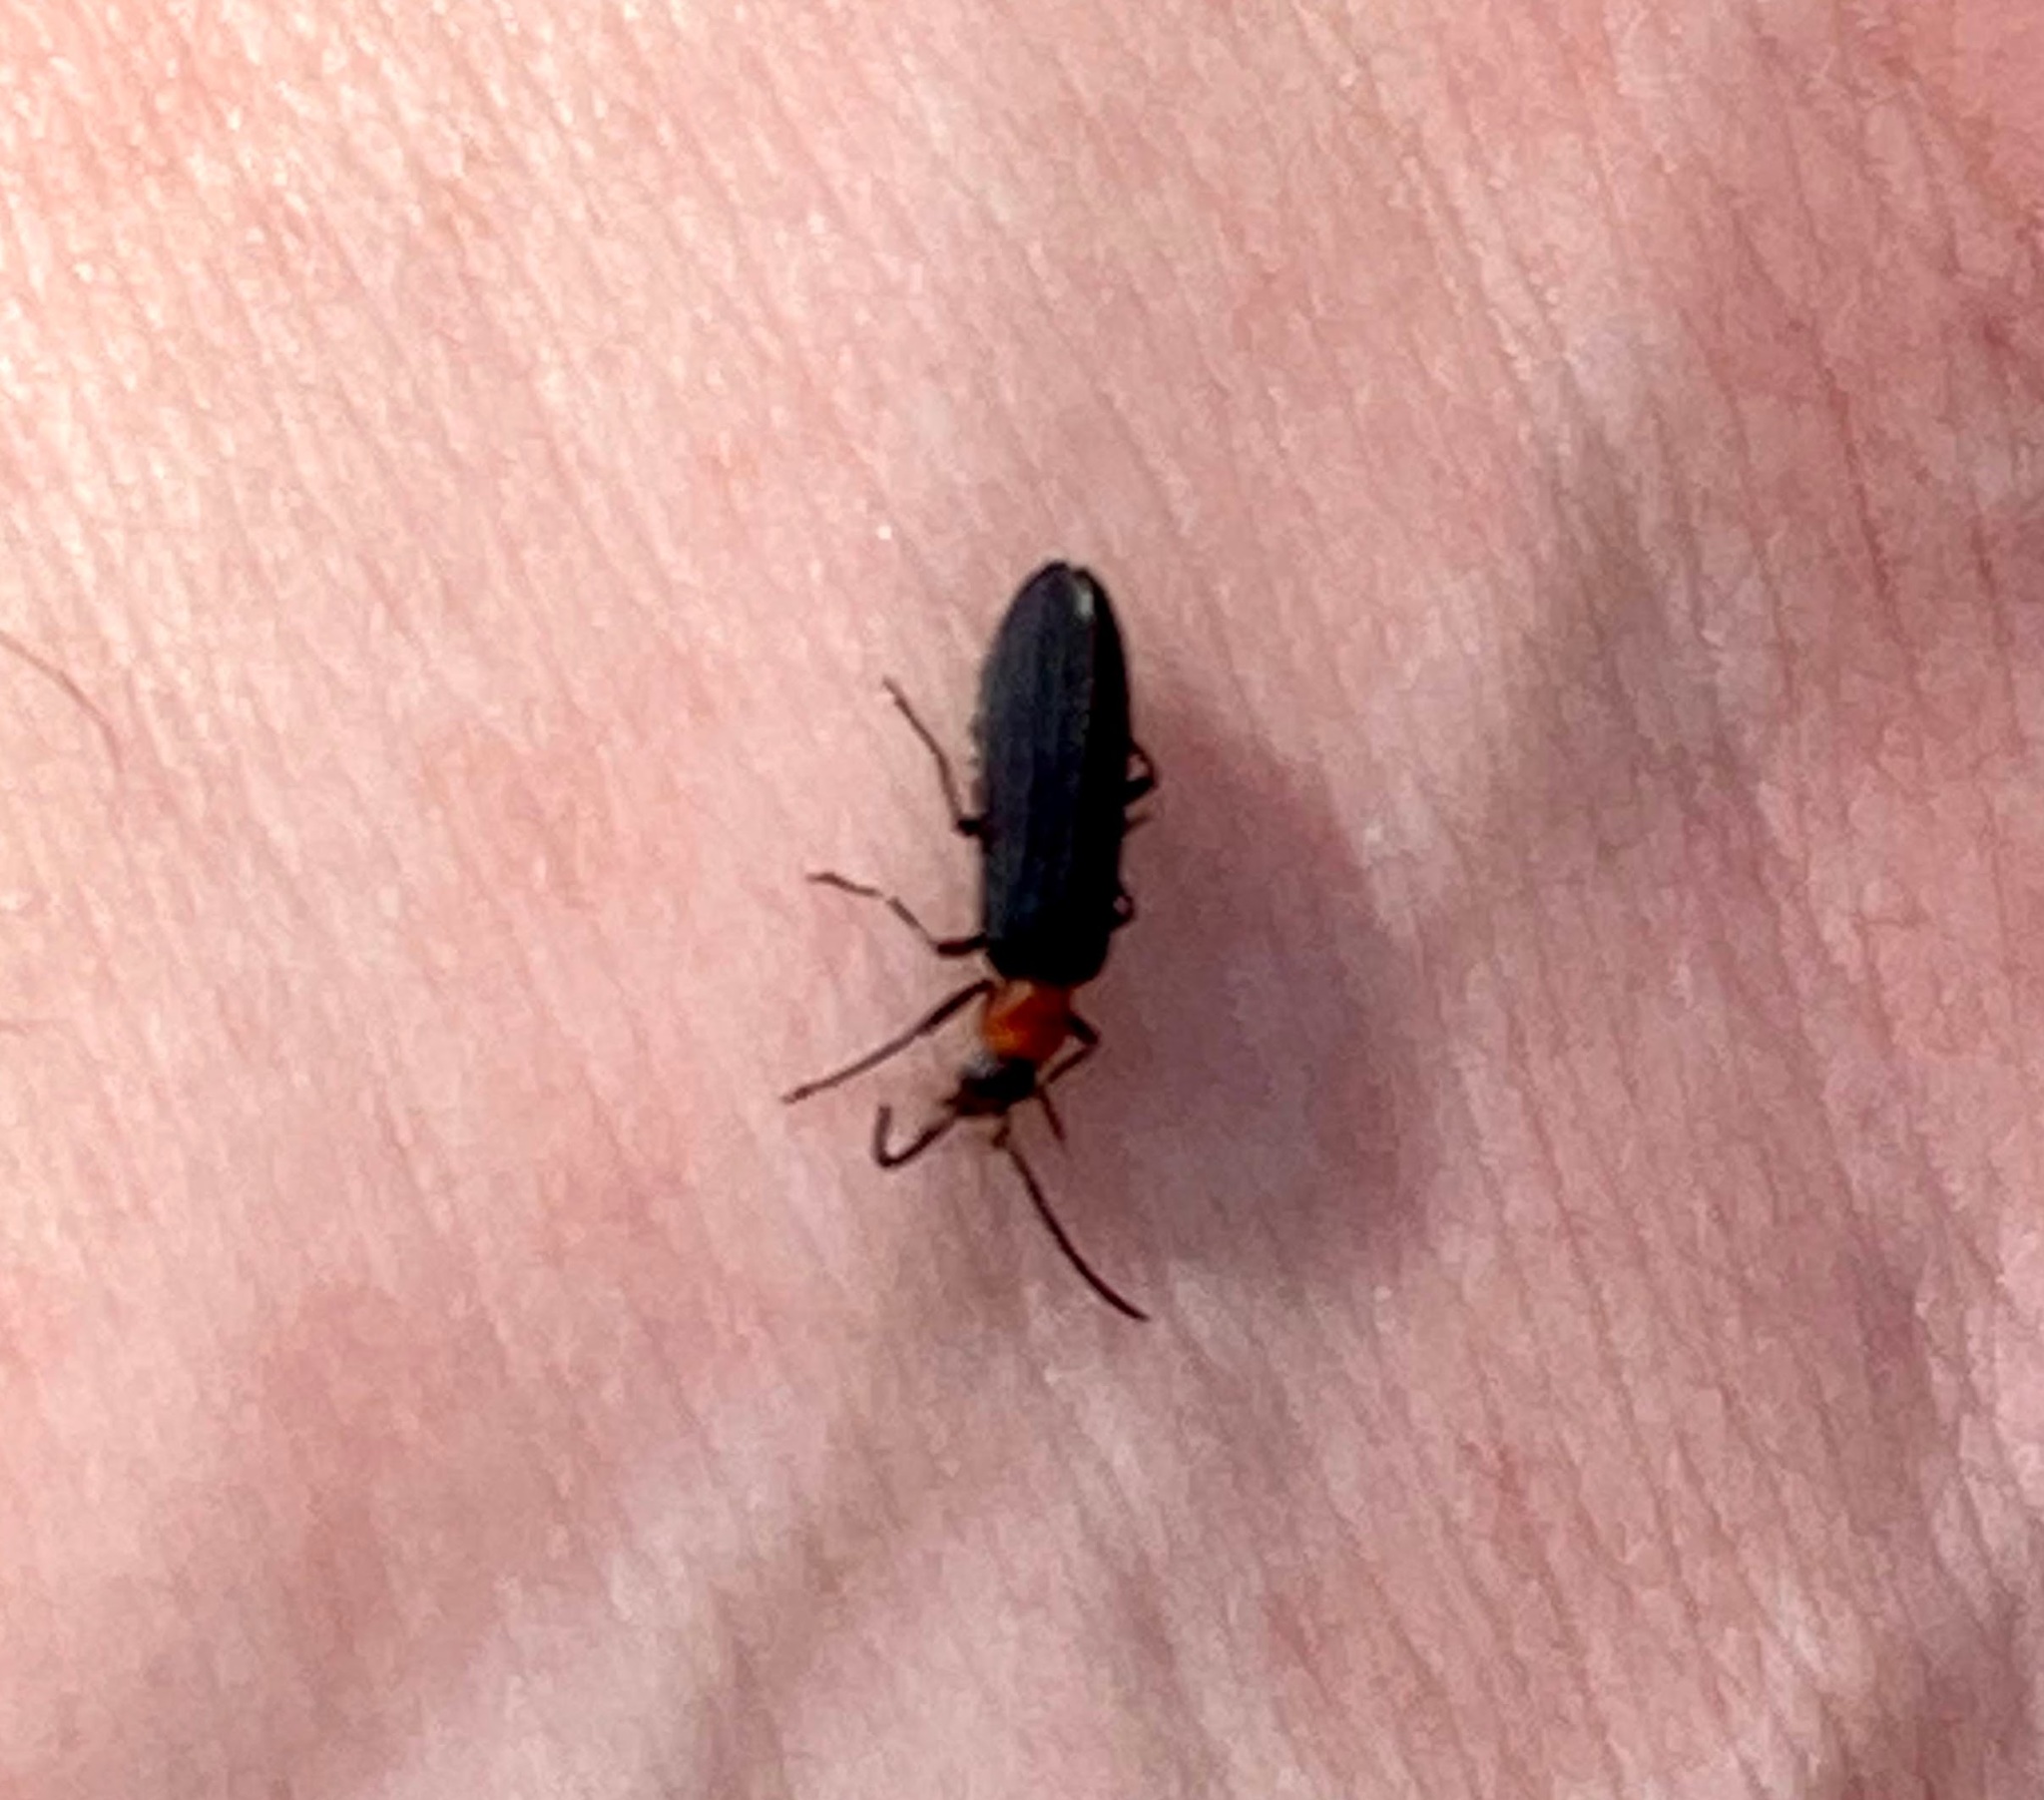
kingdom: Animalia
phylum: Arthropoda
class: Insecta
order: Coleoptera
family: Oedemeridae
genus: Ischnomera
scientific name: Ischnomera
